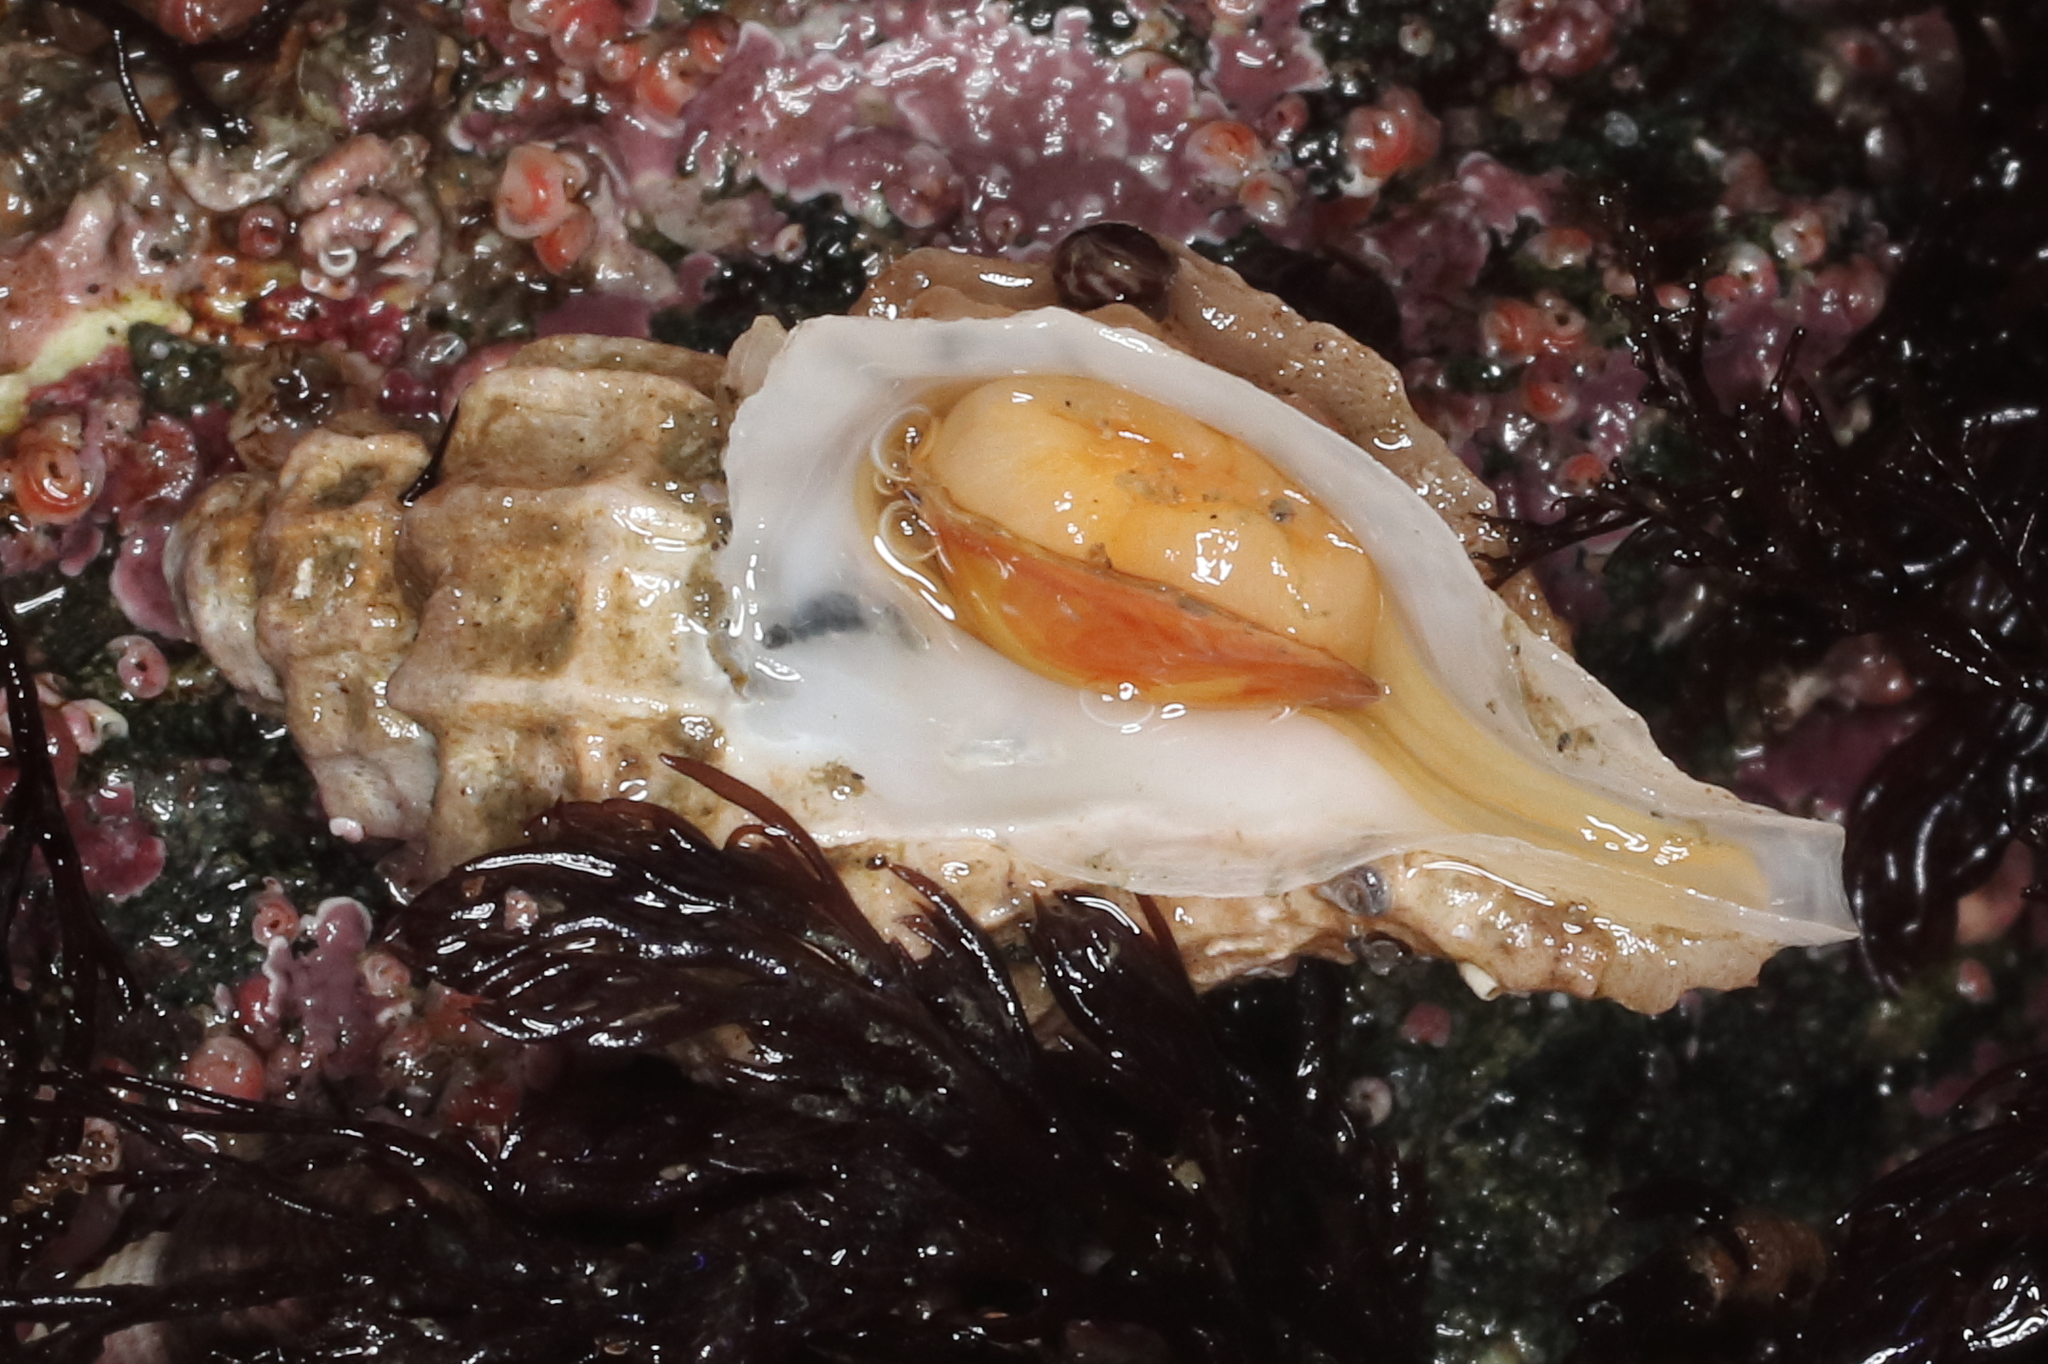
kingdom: Animalia
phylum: Mollusca
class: Gastropoda
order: Neogastropoda
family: Muricidae
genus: Scabrotrophon
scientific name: Scabrotrophon stuarti
